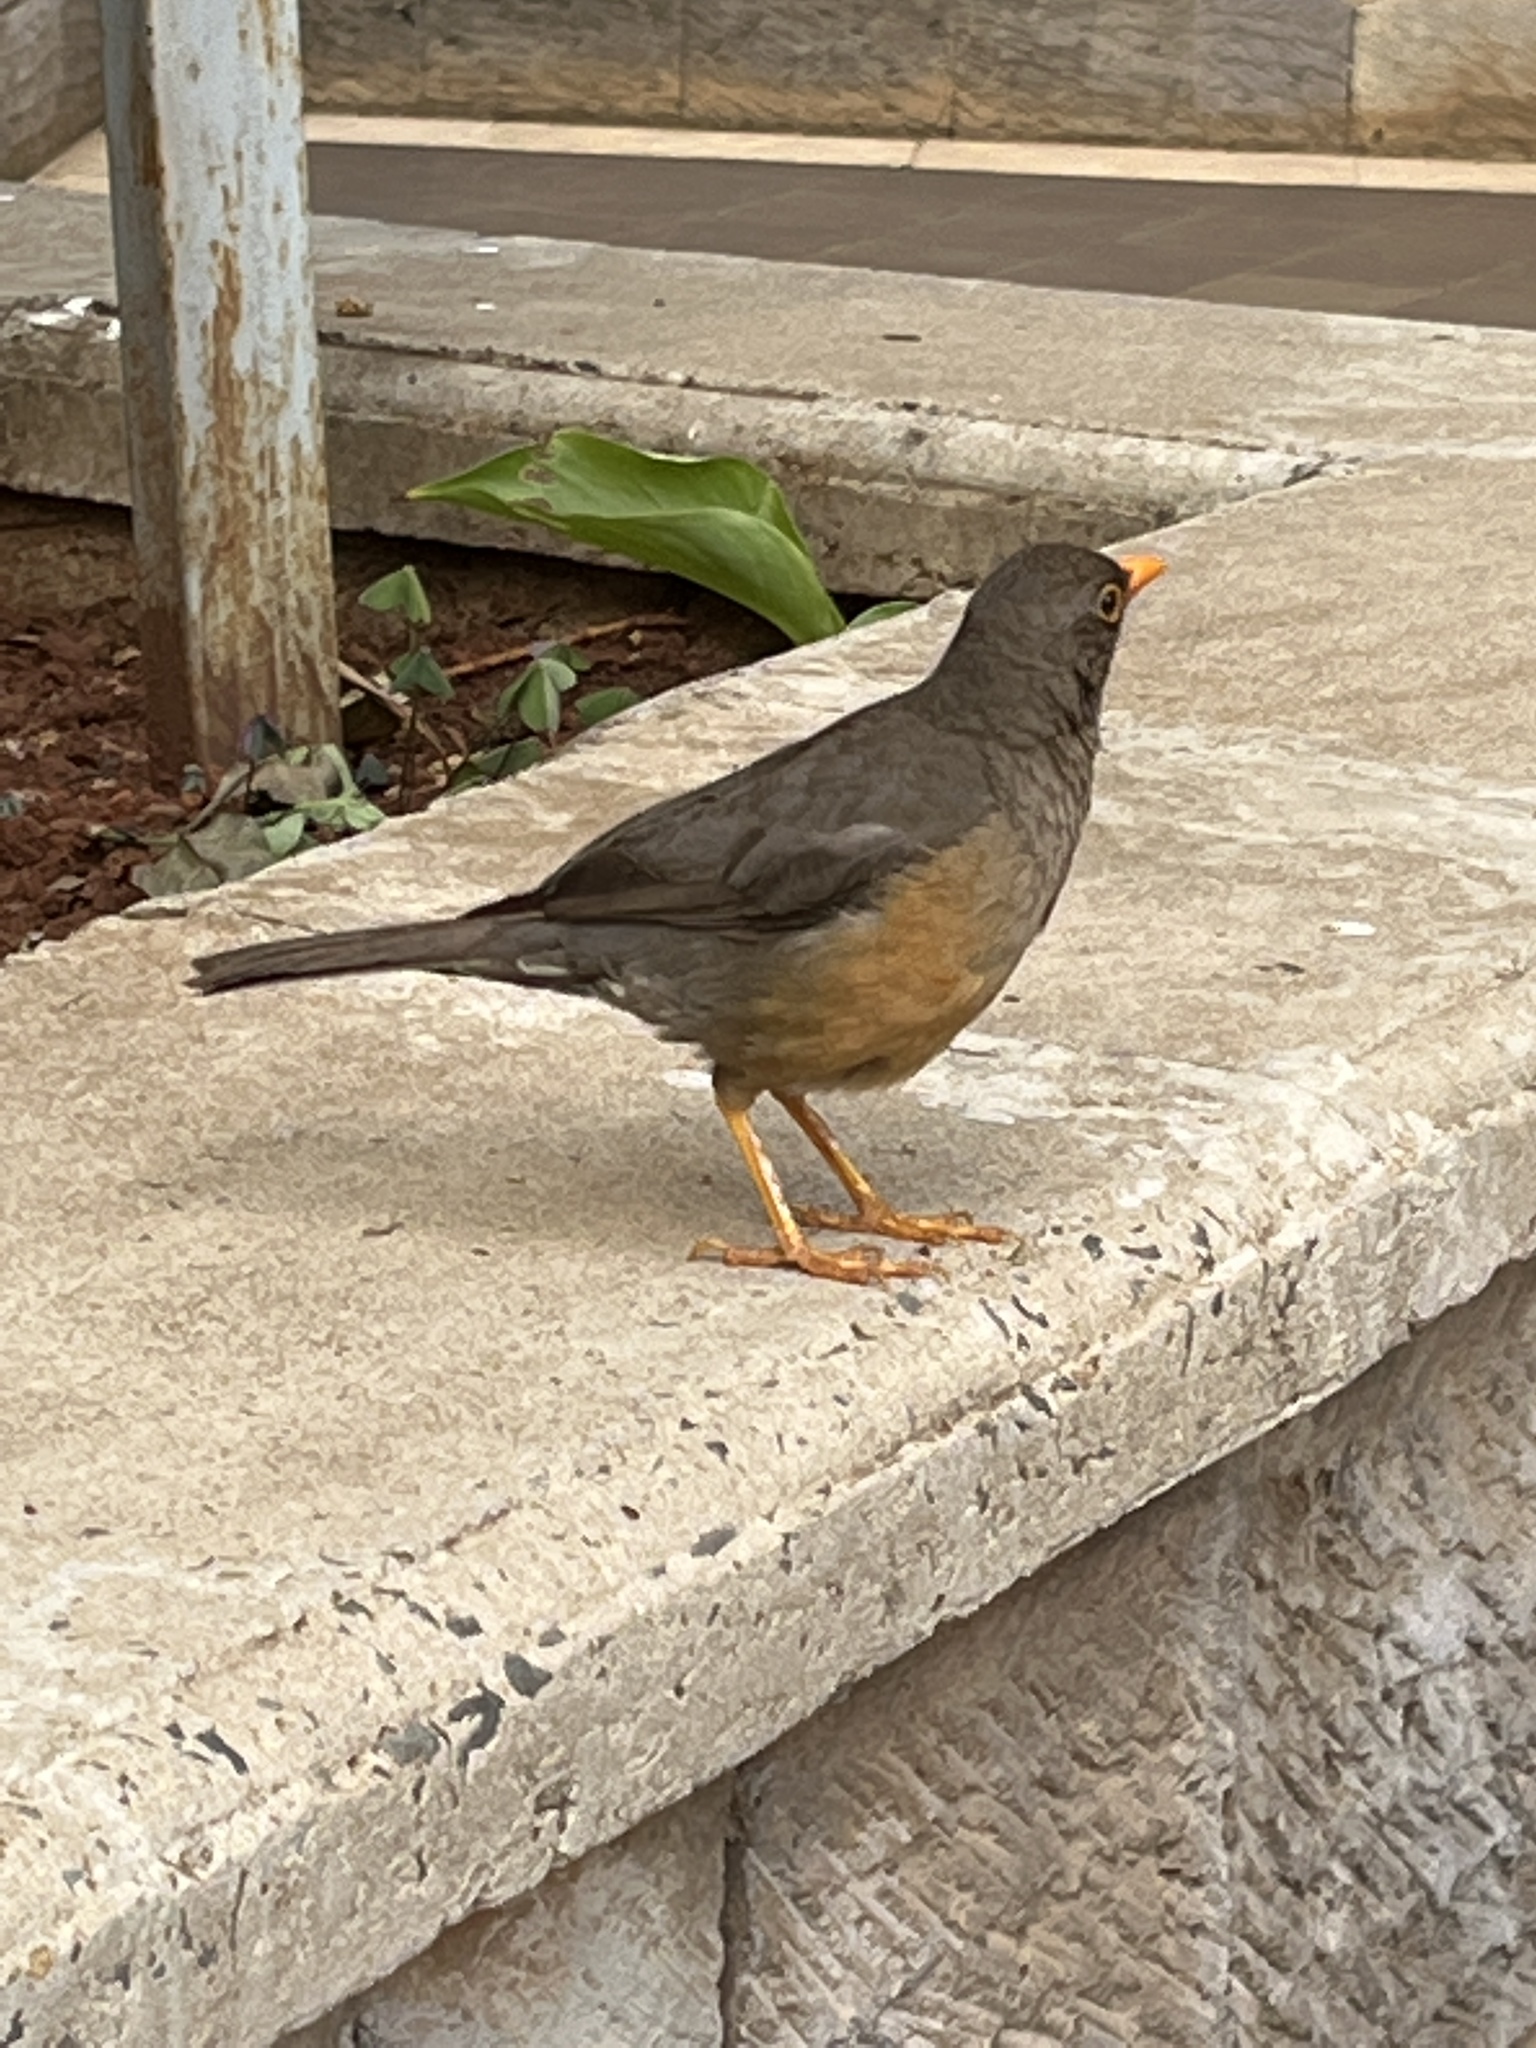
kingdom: Animalia
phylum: Chordata
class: Aves
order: Passeriformes
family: Turdidae
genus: Turdus
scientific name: Turdus abyssinicus
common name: Abyssinian thrush
